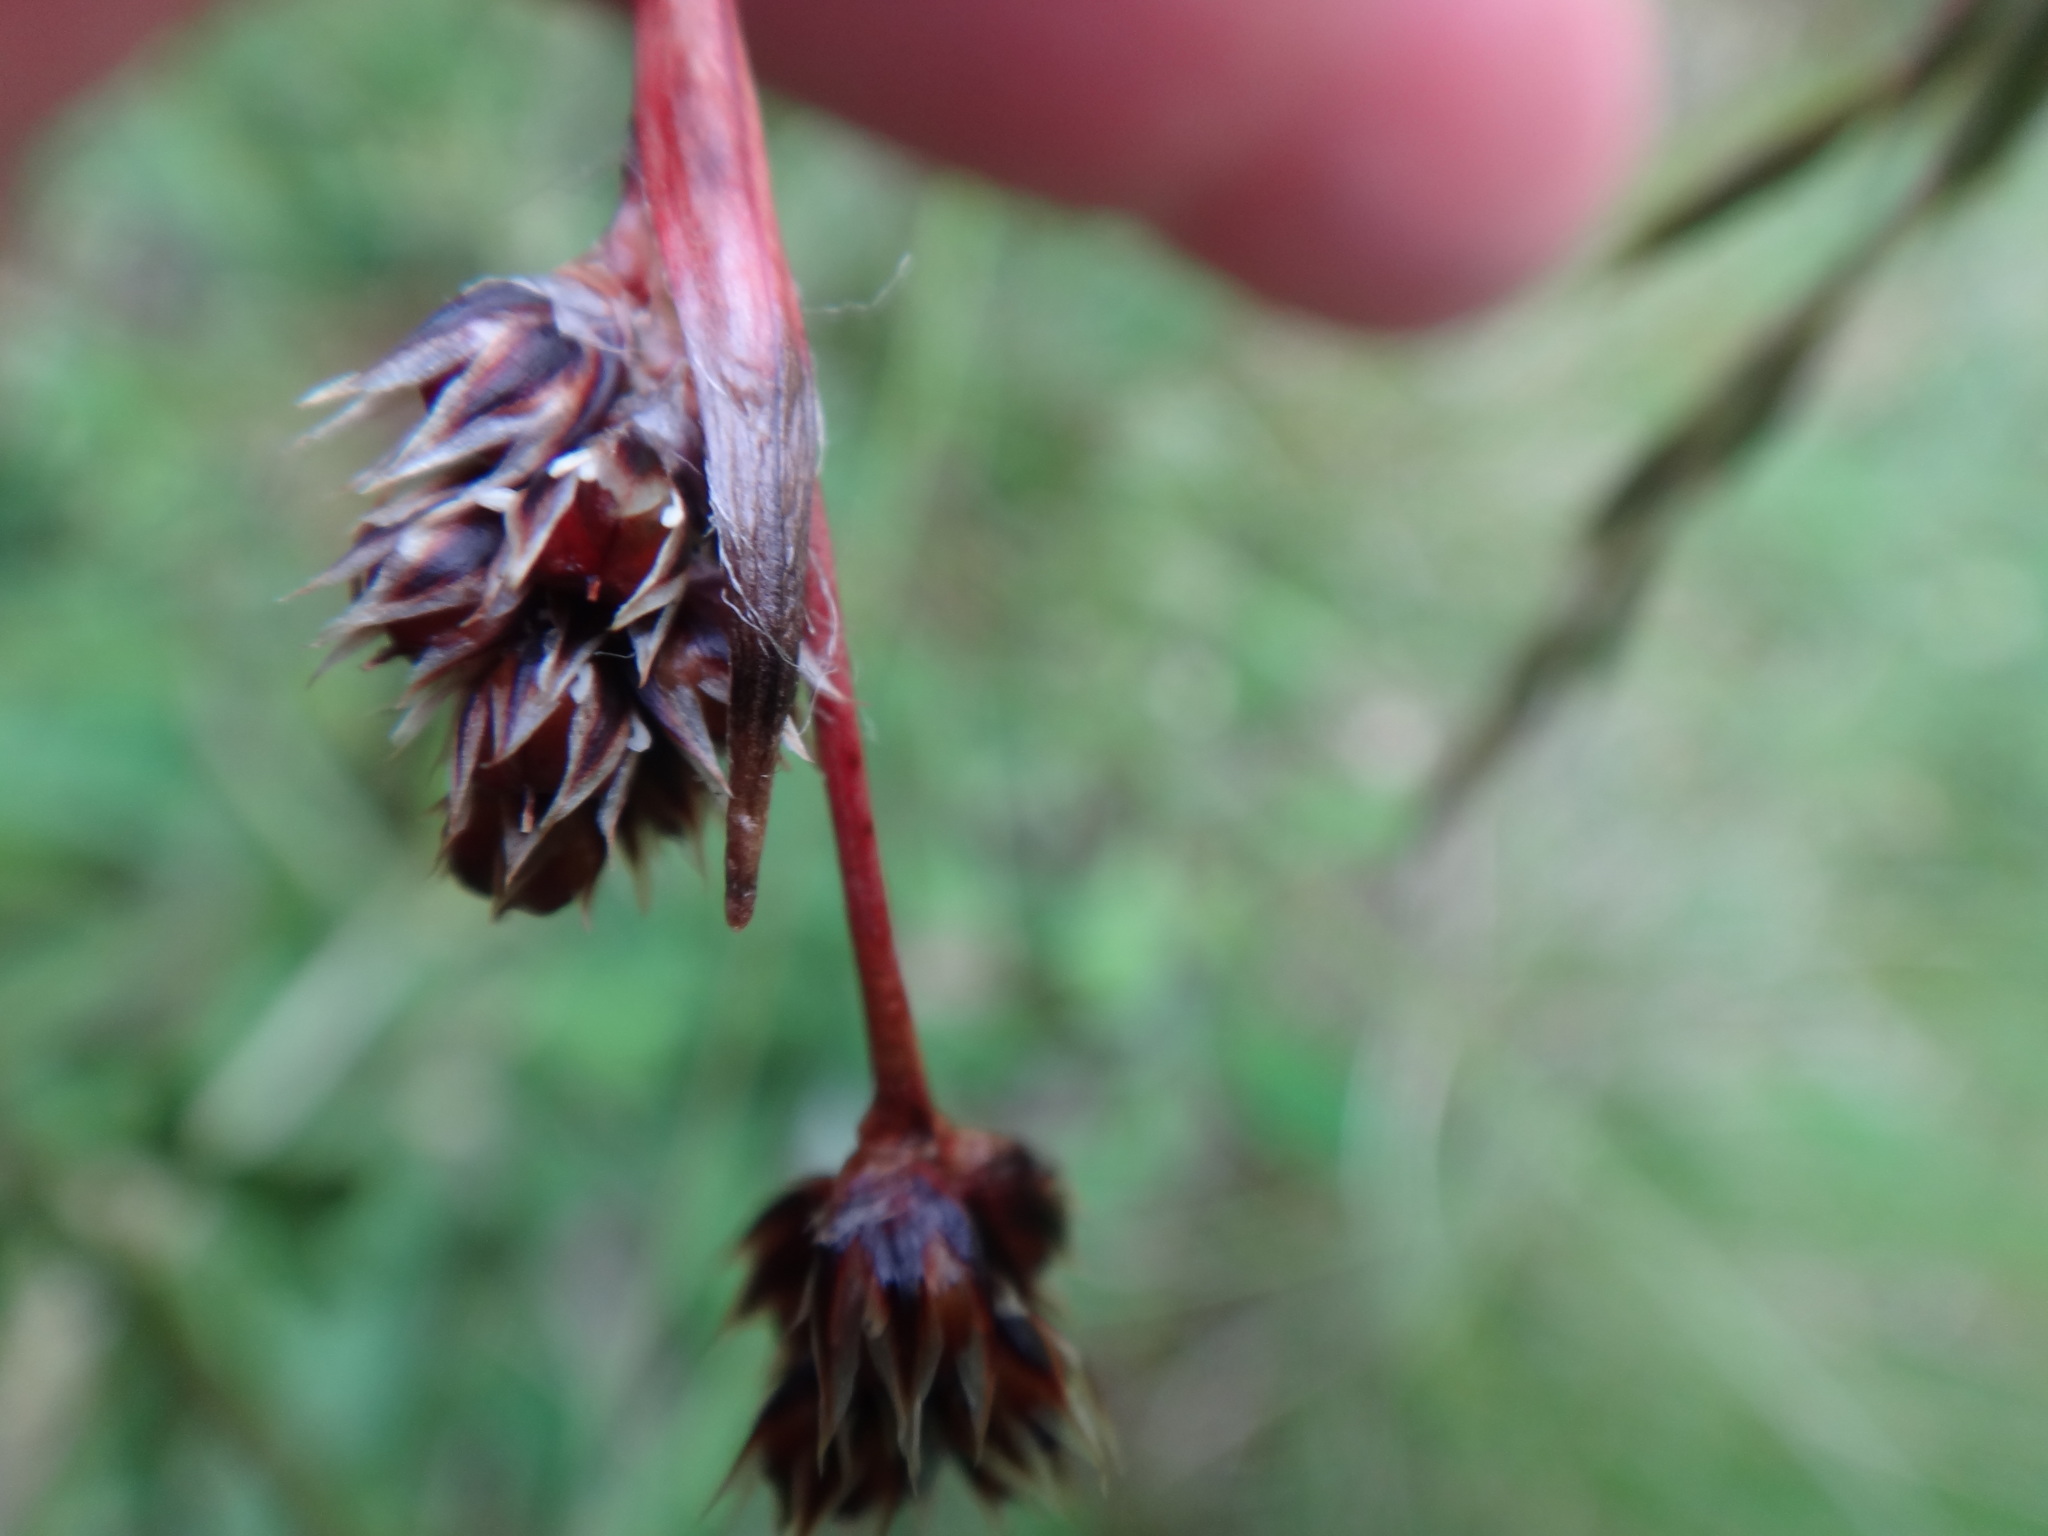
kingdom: Plantae
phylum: Tracheophyta
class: Liliopsida
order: Poales
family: Juncaceae
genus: Luzula
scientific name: Luzula campestris
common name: Field wood-rush
